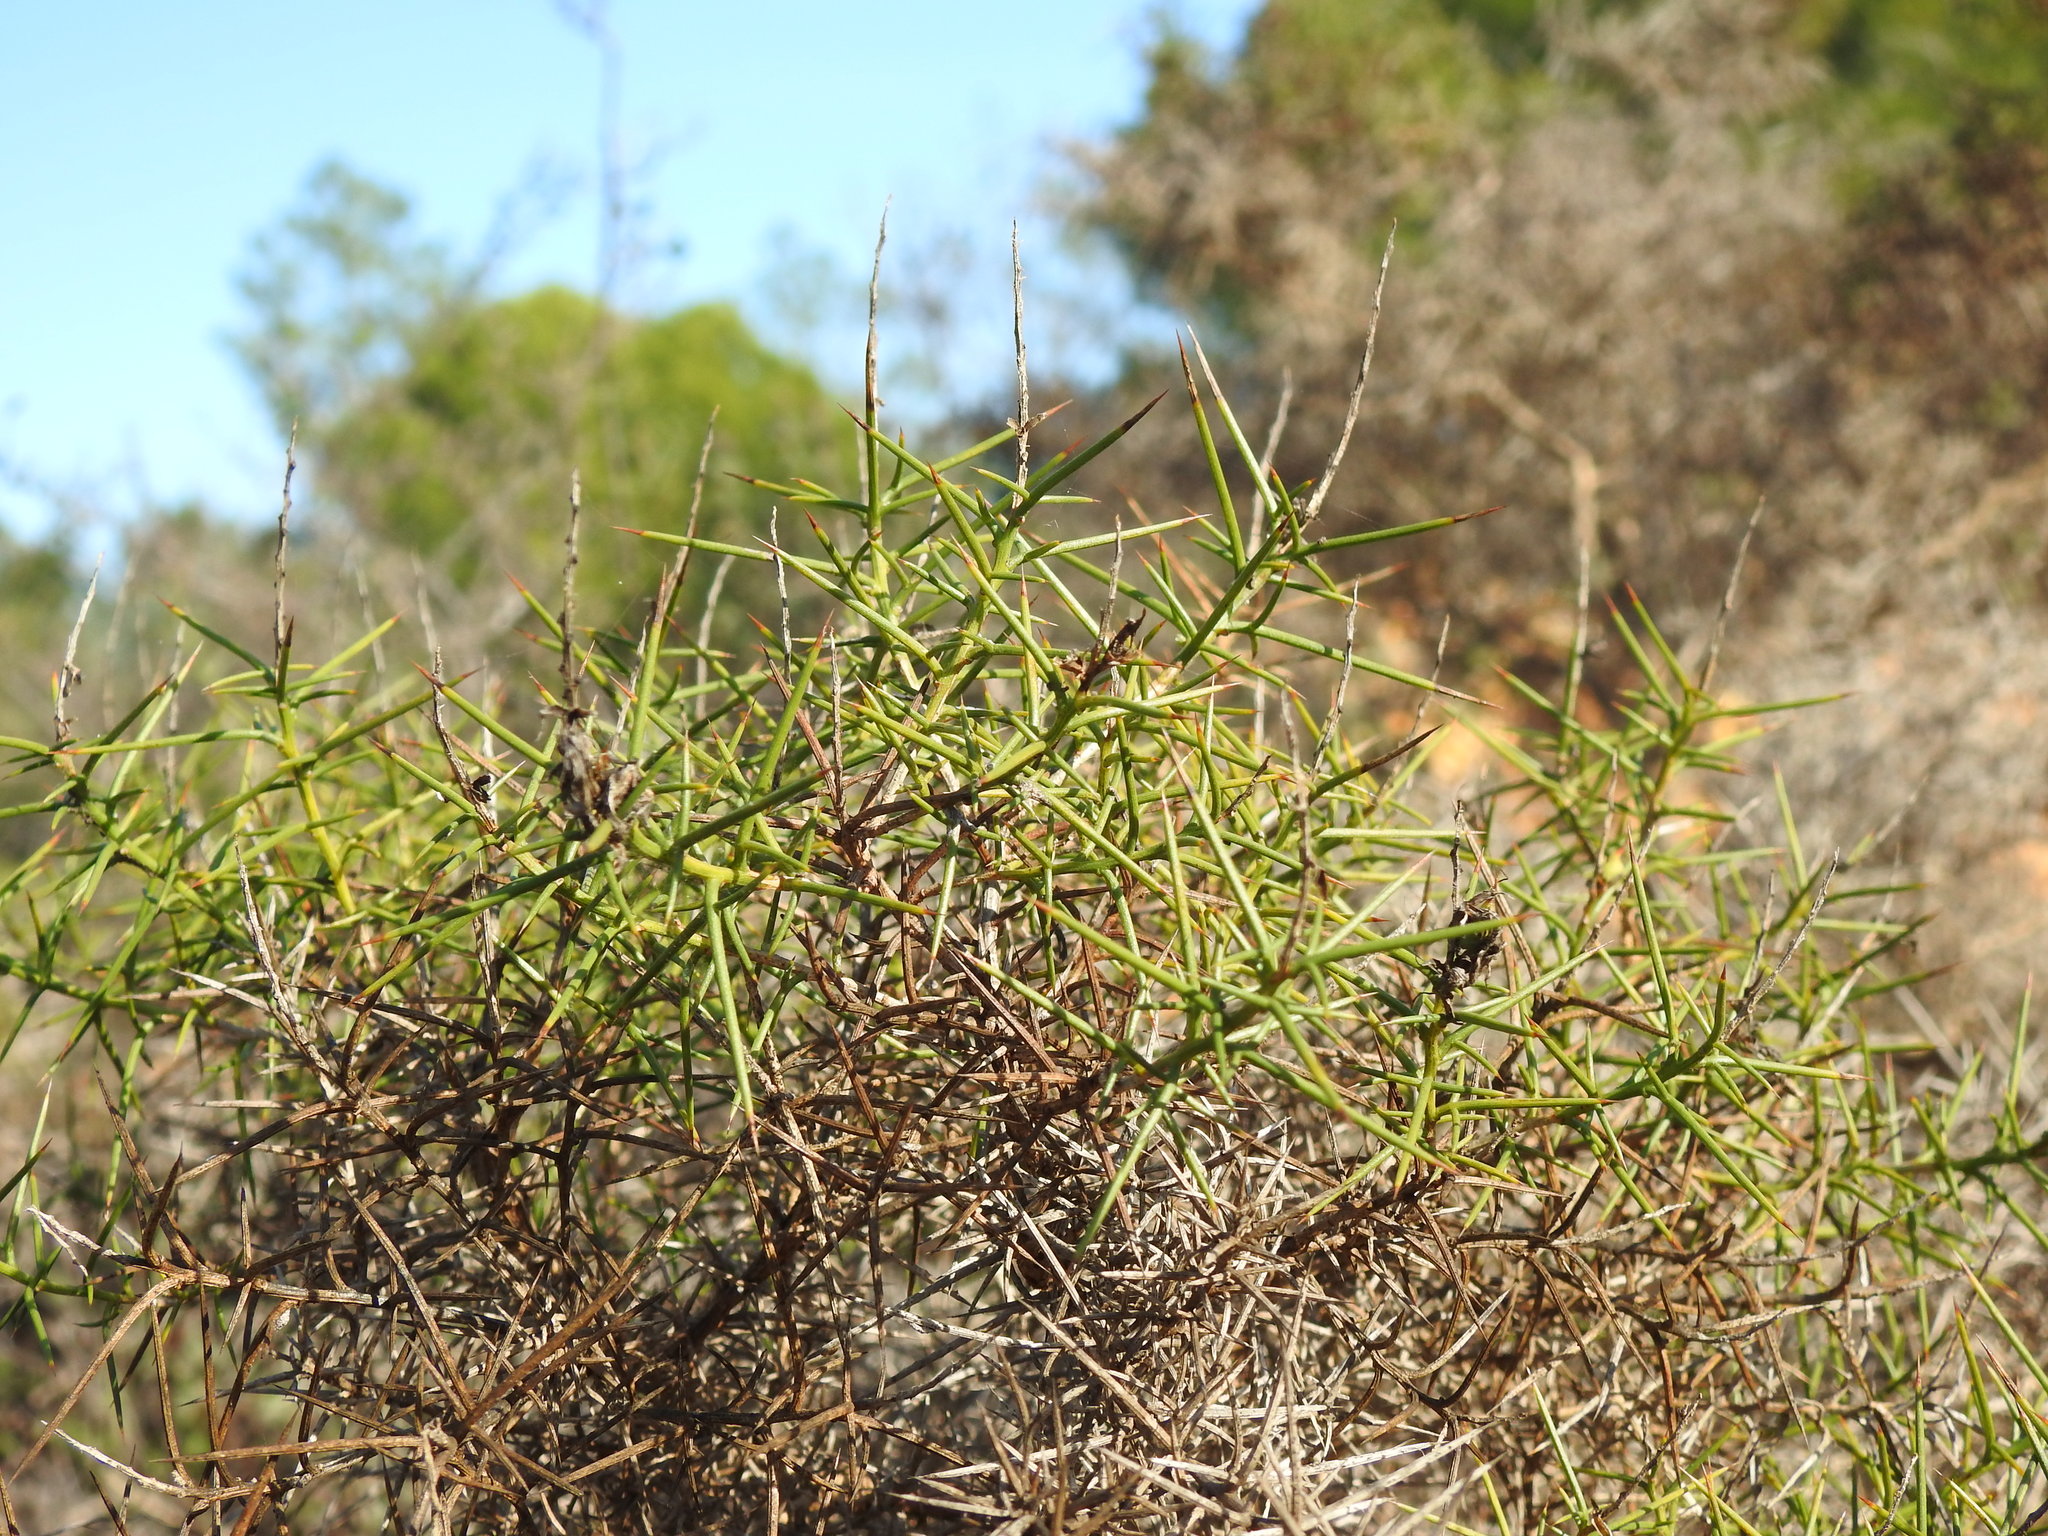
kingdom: Plantae
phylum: Tracheophyta
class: Magnoliopsida
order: Fabales
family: Fabaceae
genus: Genista
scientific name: Genista hirsuta
